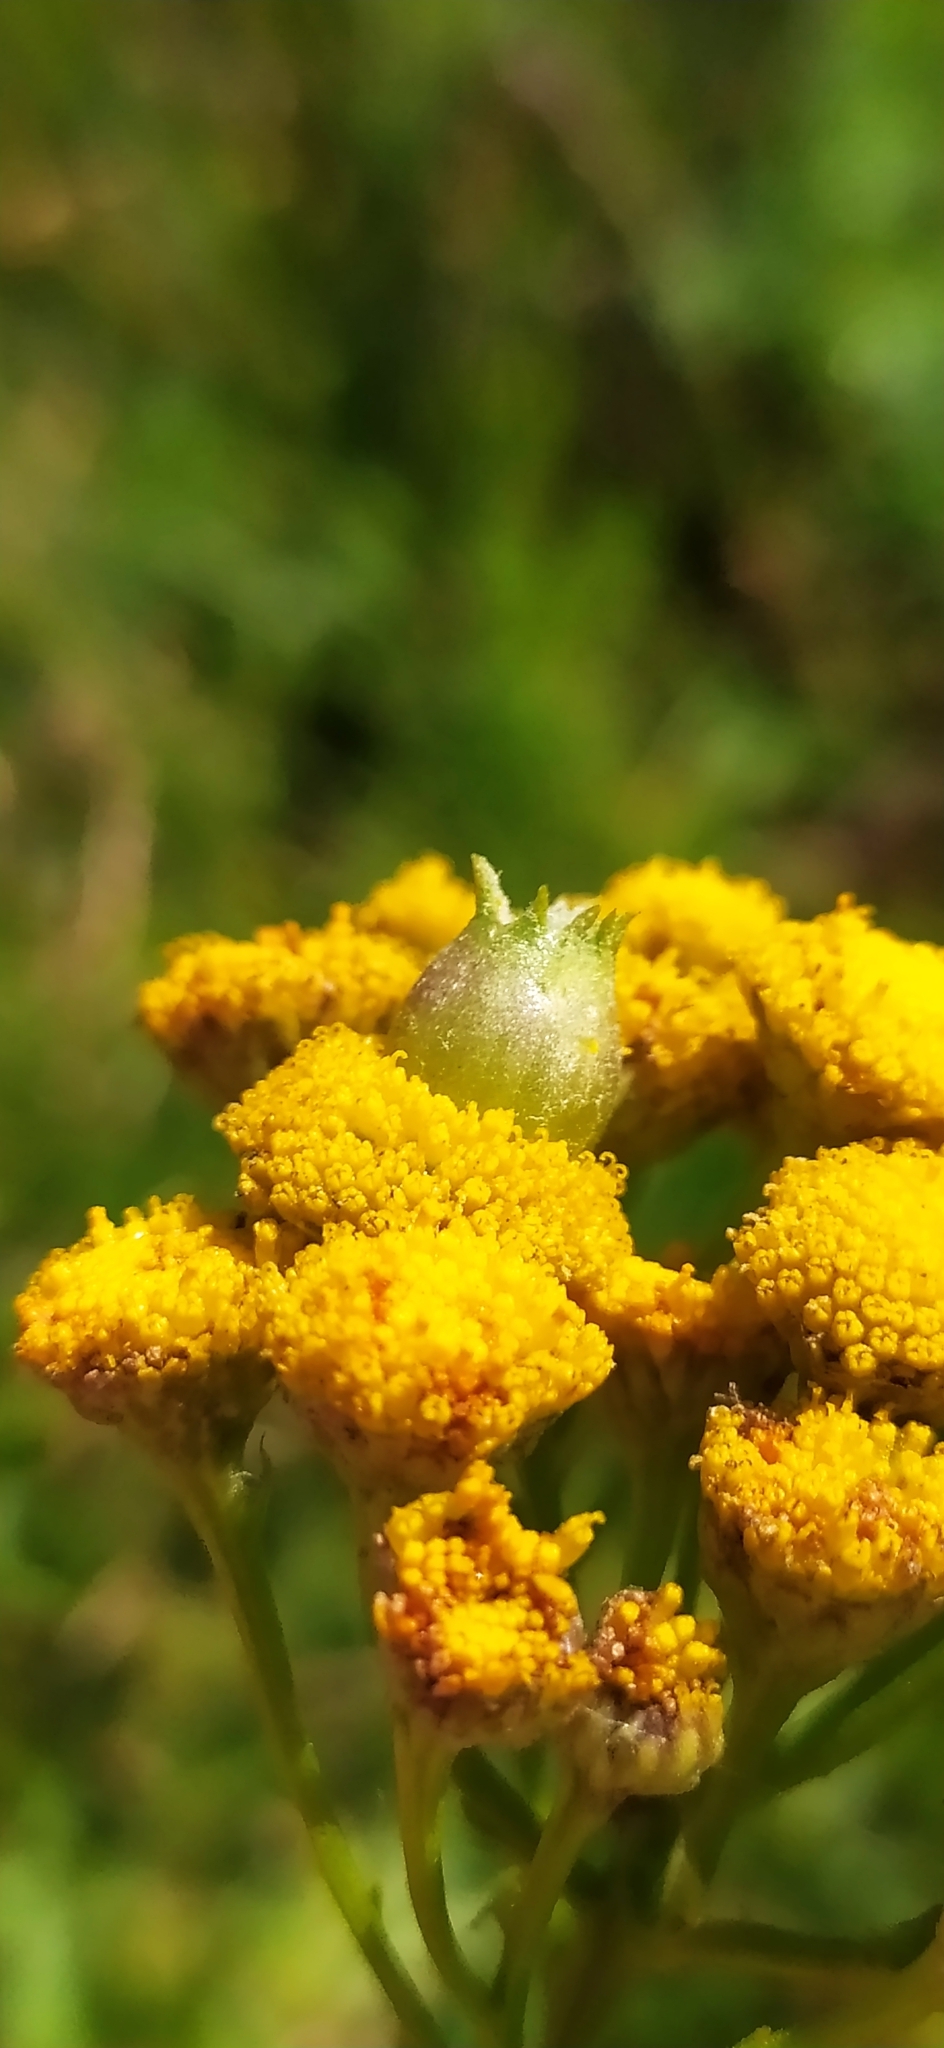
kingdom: Animalia
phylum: Arthropoda
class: Insecta
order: Diptera
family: Cecidomyiidae
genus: Rhopalomyia
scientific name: Rhopalomyia tanaceticolus
